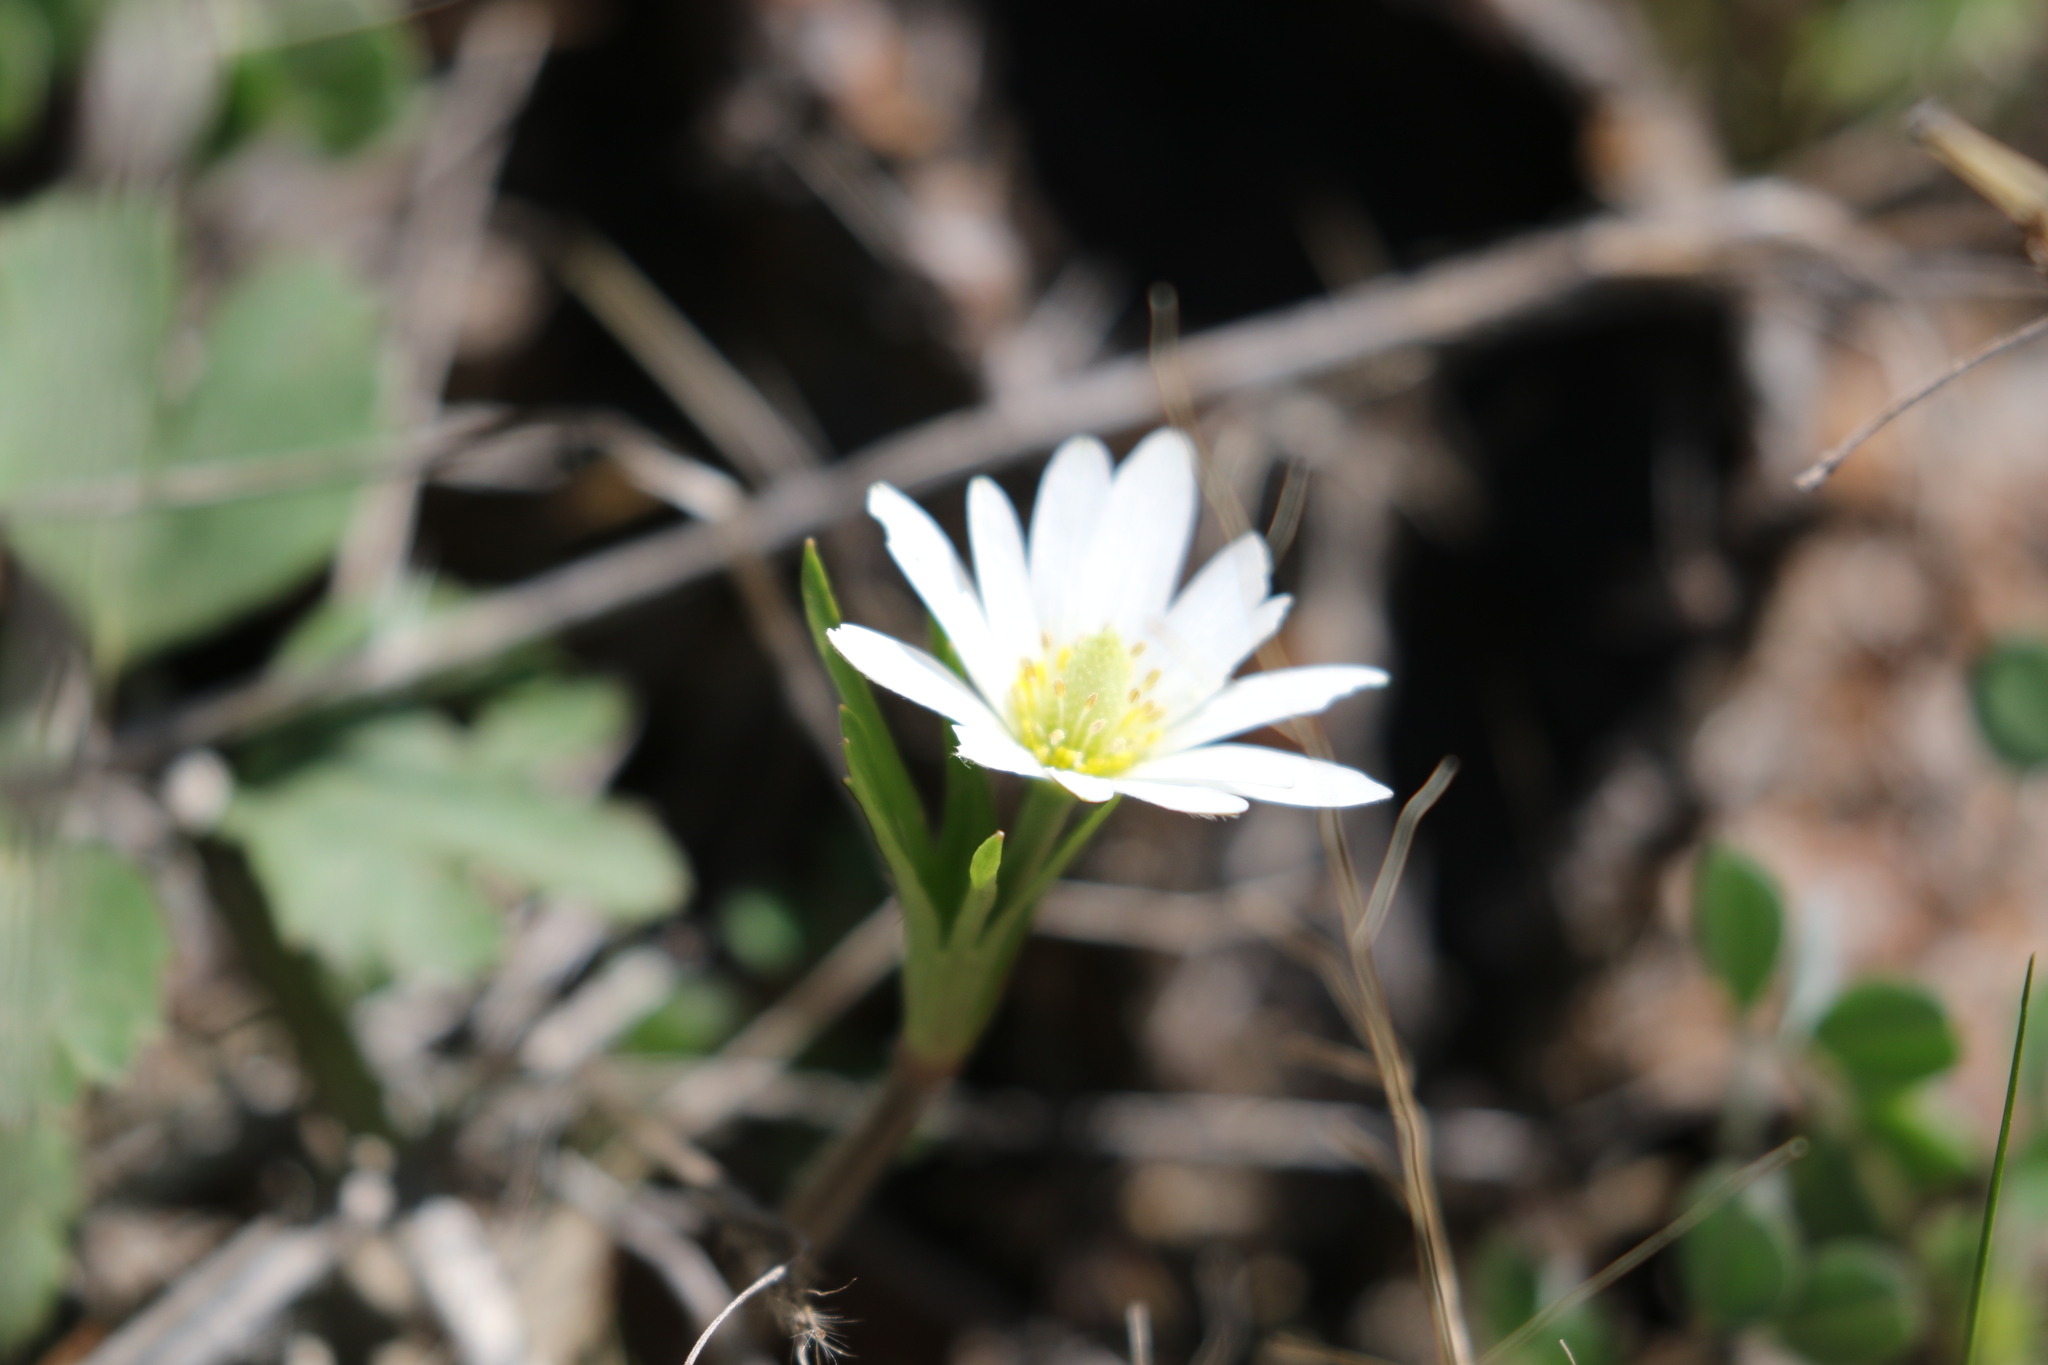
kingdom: Plantae
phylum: Tracheophyta
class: Magnoliopsida
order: Ranunculales
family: Ranunculaceae
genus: Anemone
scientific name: Anemone berlandieri
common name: Ten-petal anemone
